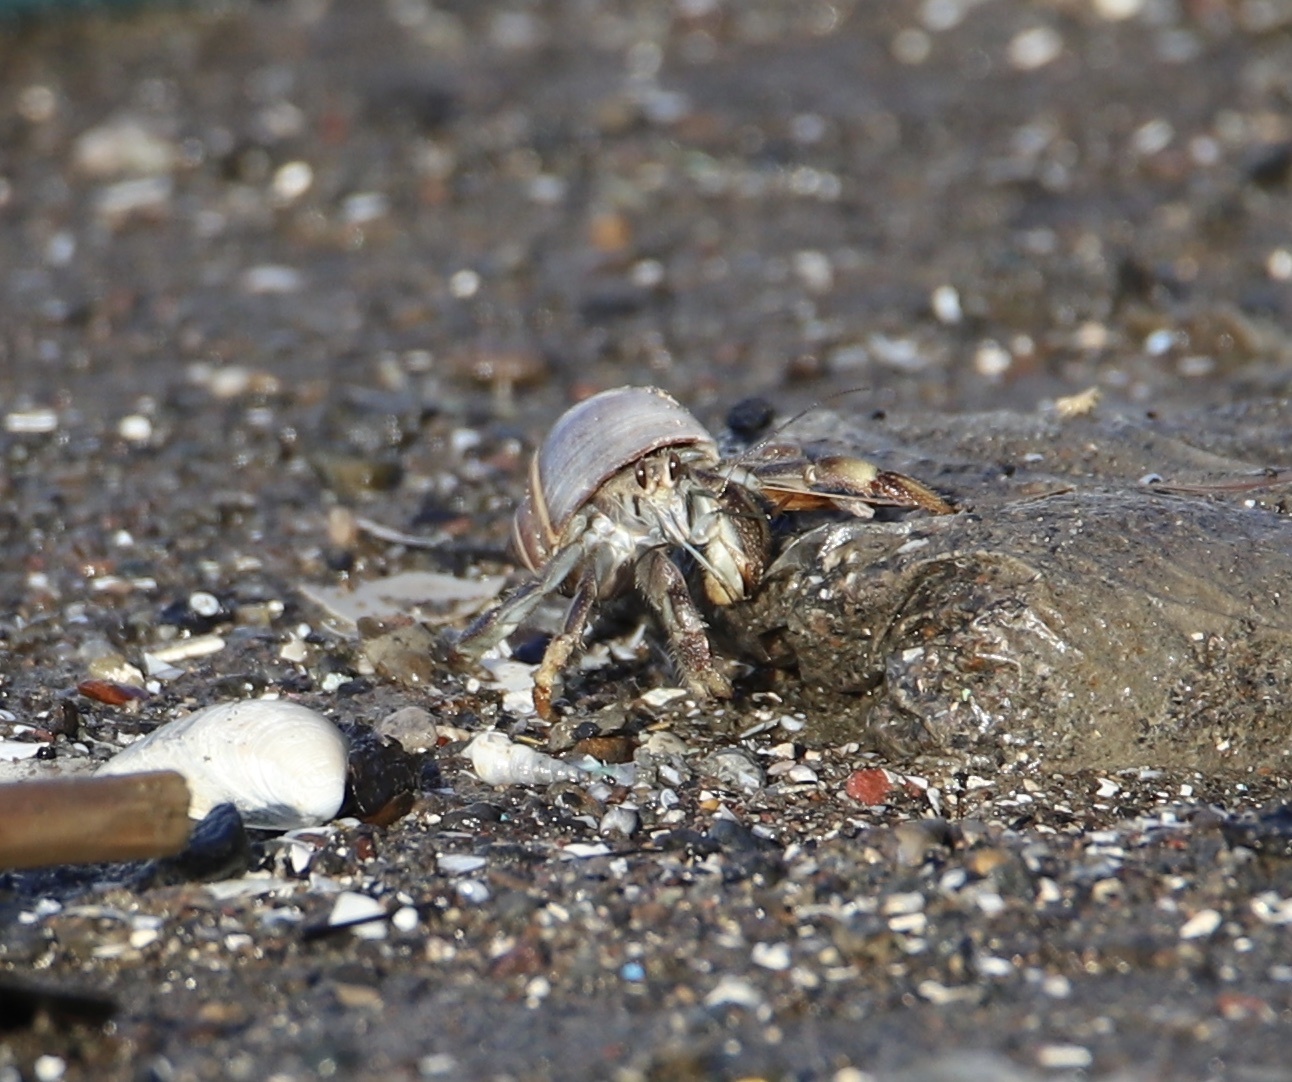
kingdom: Animalia
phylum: Arthropoda
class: Malacostraca
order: Decapoda
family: Coenobitidae
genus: Coenobita
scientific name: Coenobita compressus
